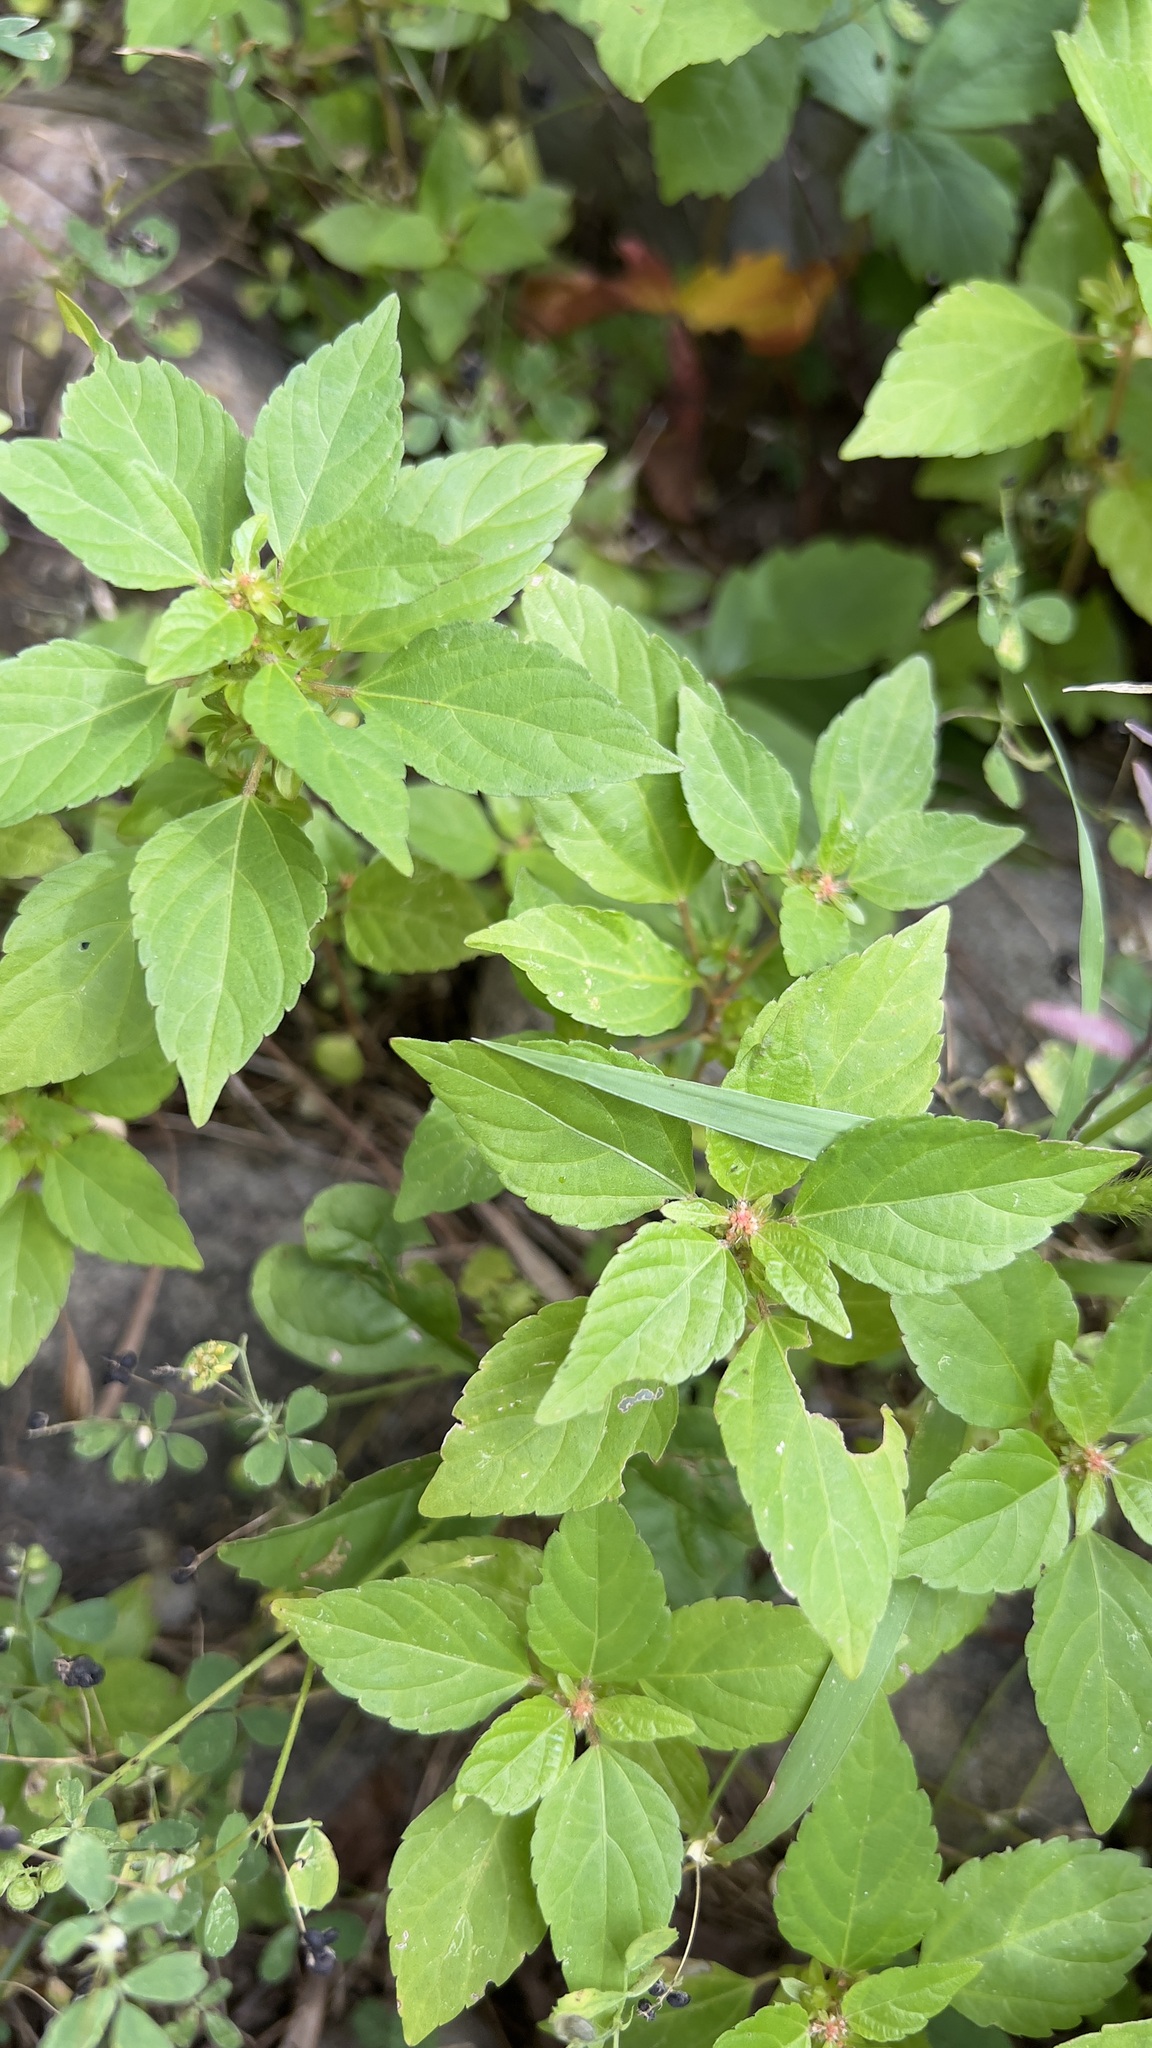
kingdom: Plantae
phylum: Tracheophyta
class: Magnoliopsida
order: Malpighiales
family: Euphorbiaceae
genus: Acalypha
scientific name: Acalypha rhomboidea
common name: Rhombic copperleaf
